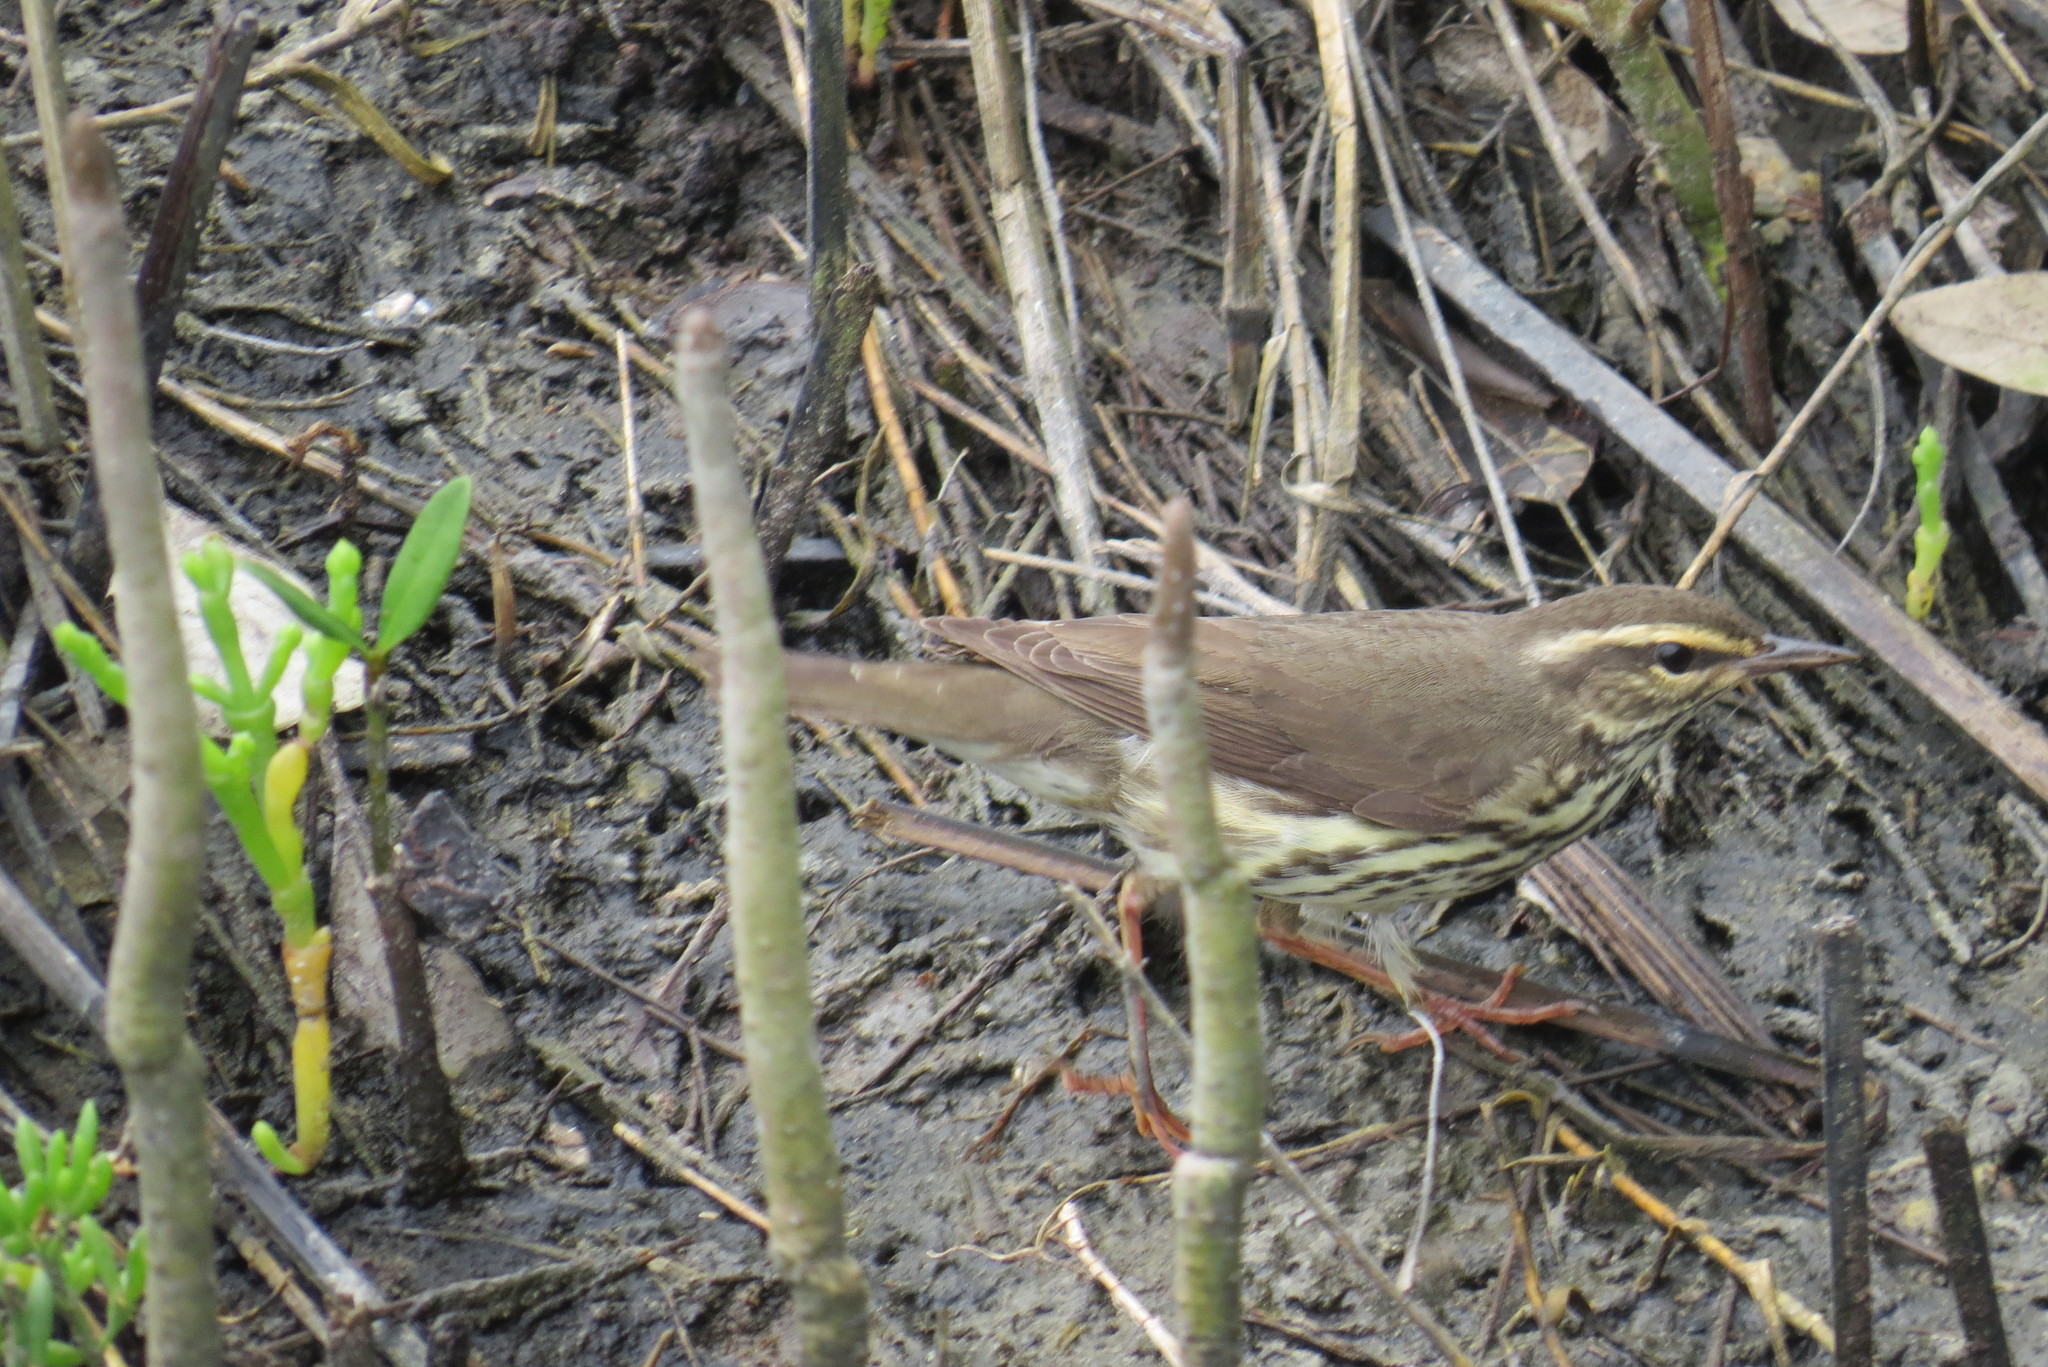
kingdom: Animalia
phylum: Chordata
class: Aves
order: Passeriformes
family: Parulidae
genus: Parkesia
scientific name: Parkesia noveboracensis
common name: Northern waterthrush
